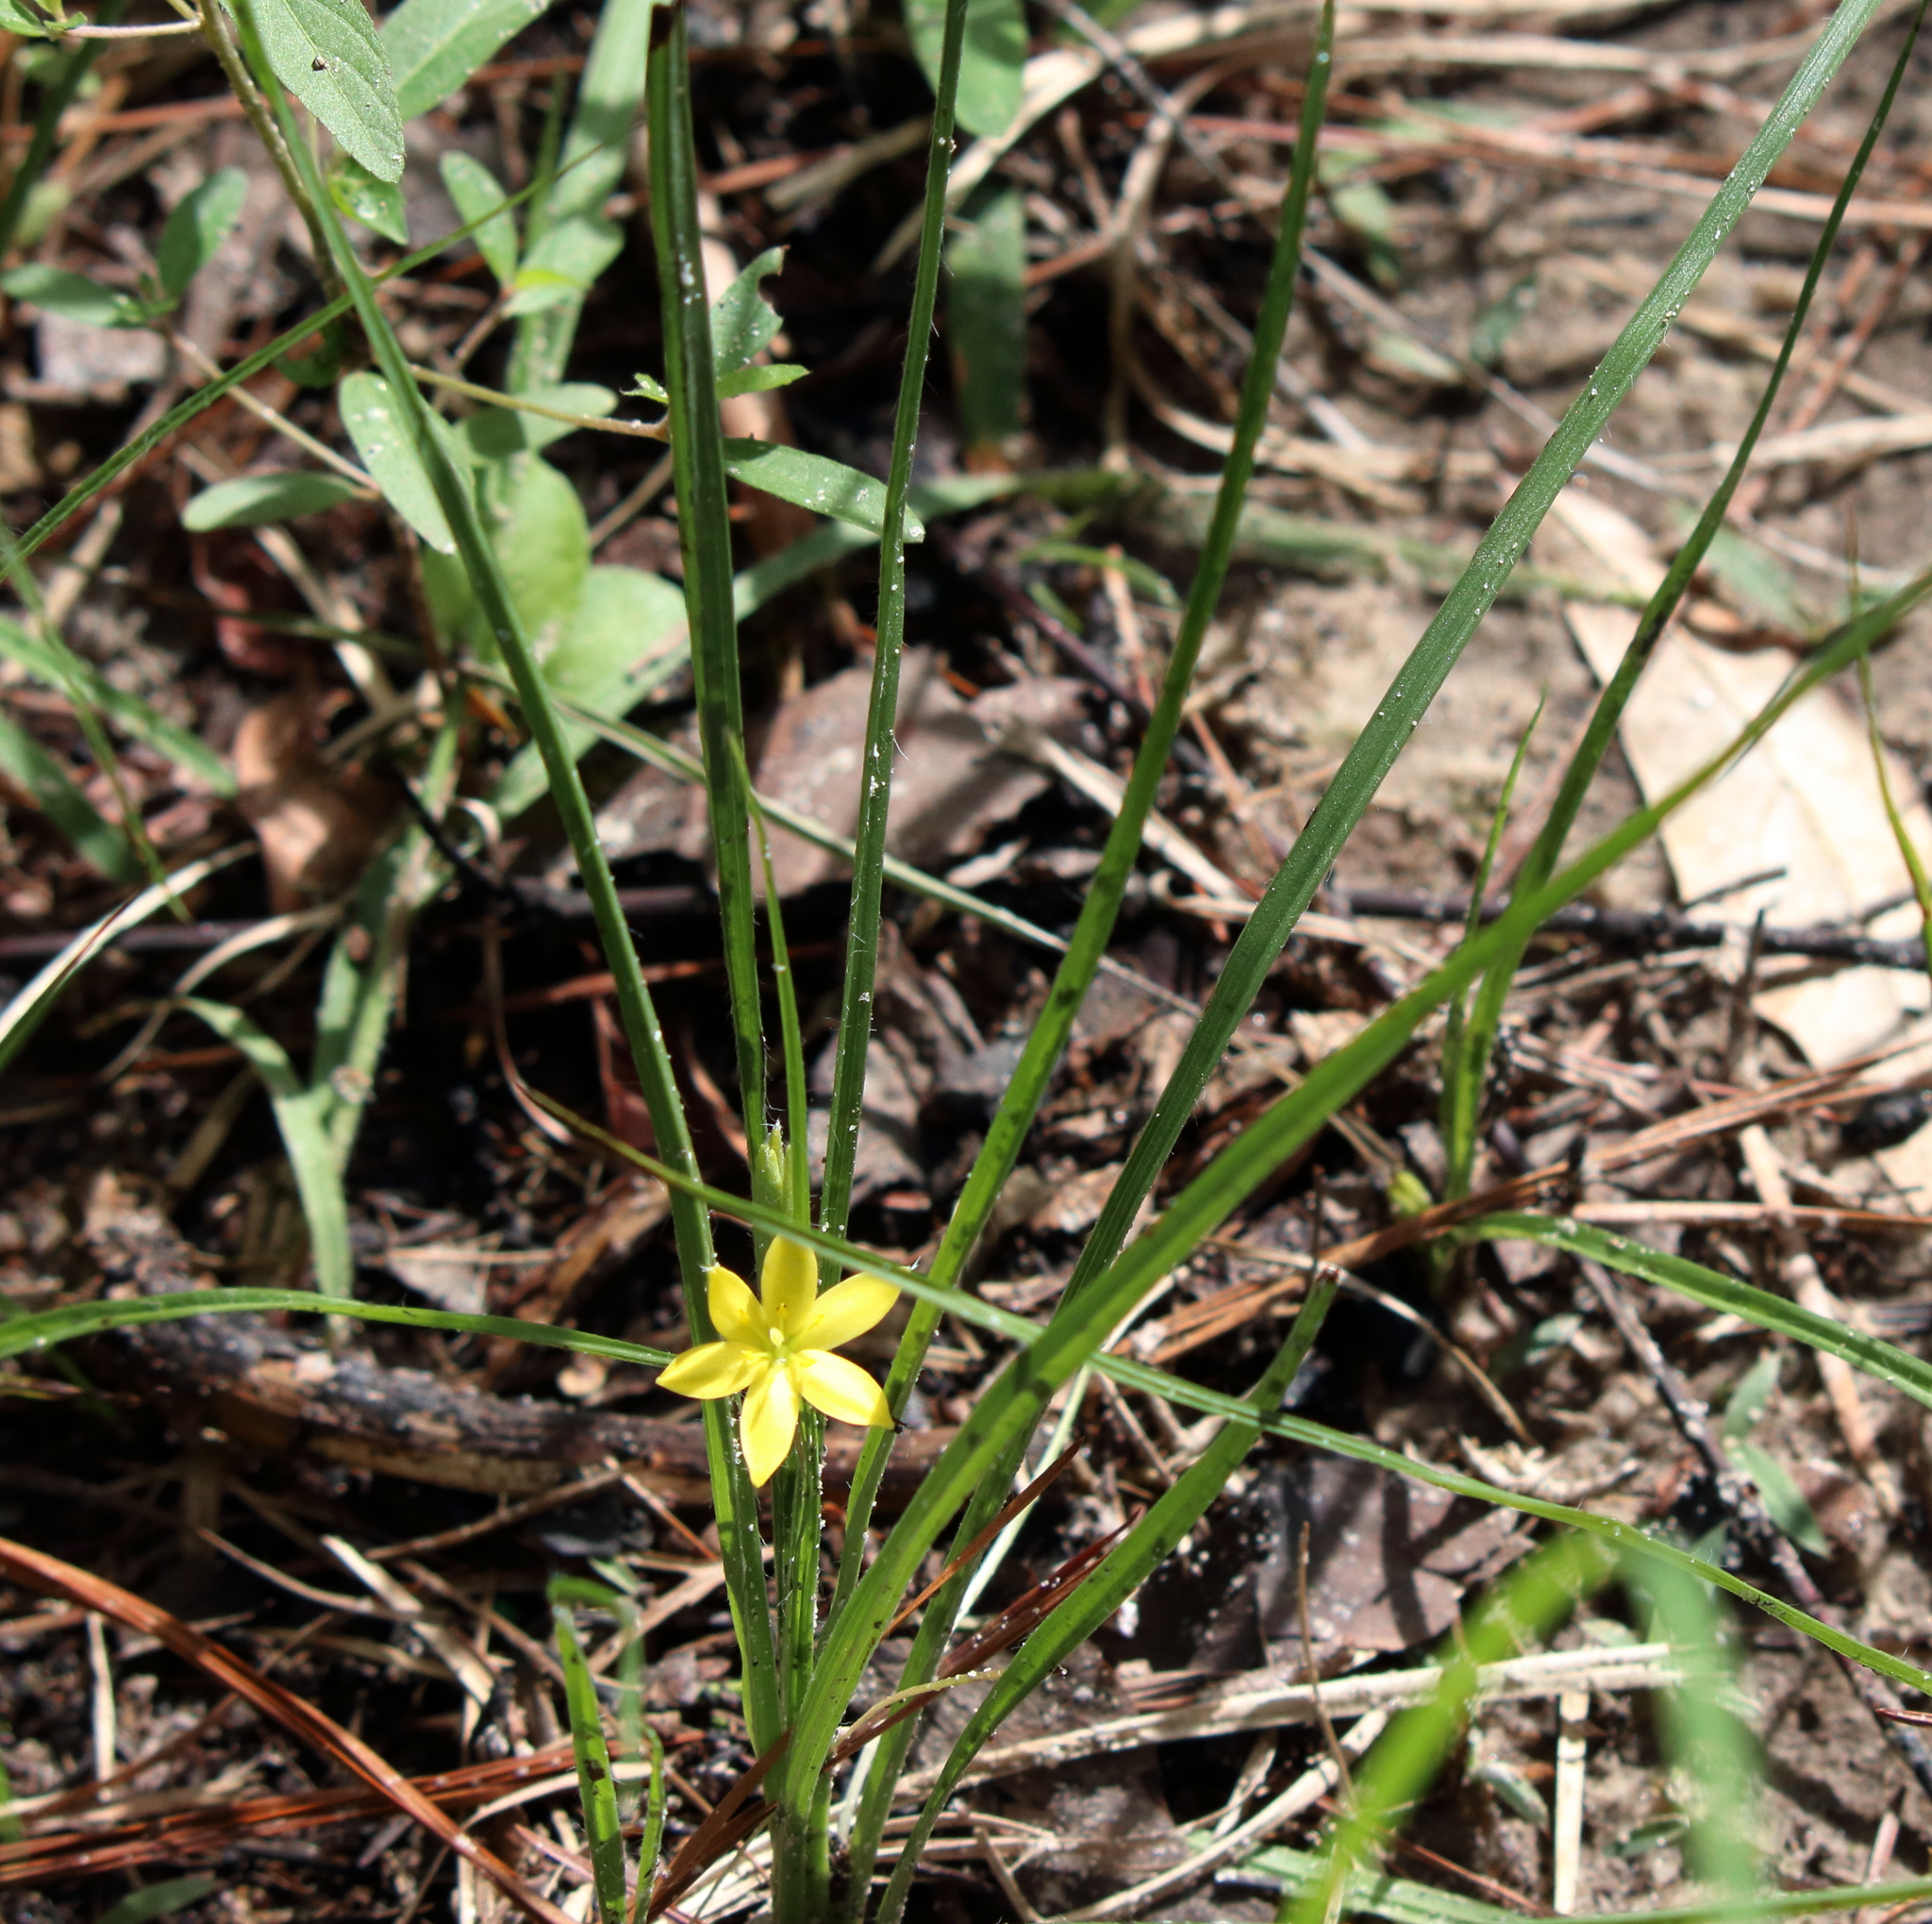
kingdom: Plantae
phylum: Tracheophyta
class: Liliopsida
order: Asparagales
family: Hypoxidaceae
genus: Hypoxis
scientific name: Hypoxis hirsuta
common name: Common goldstar
